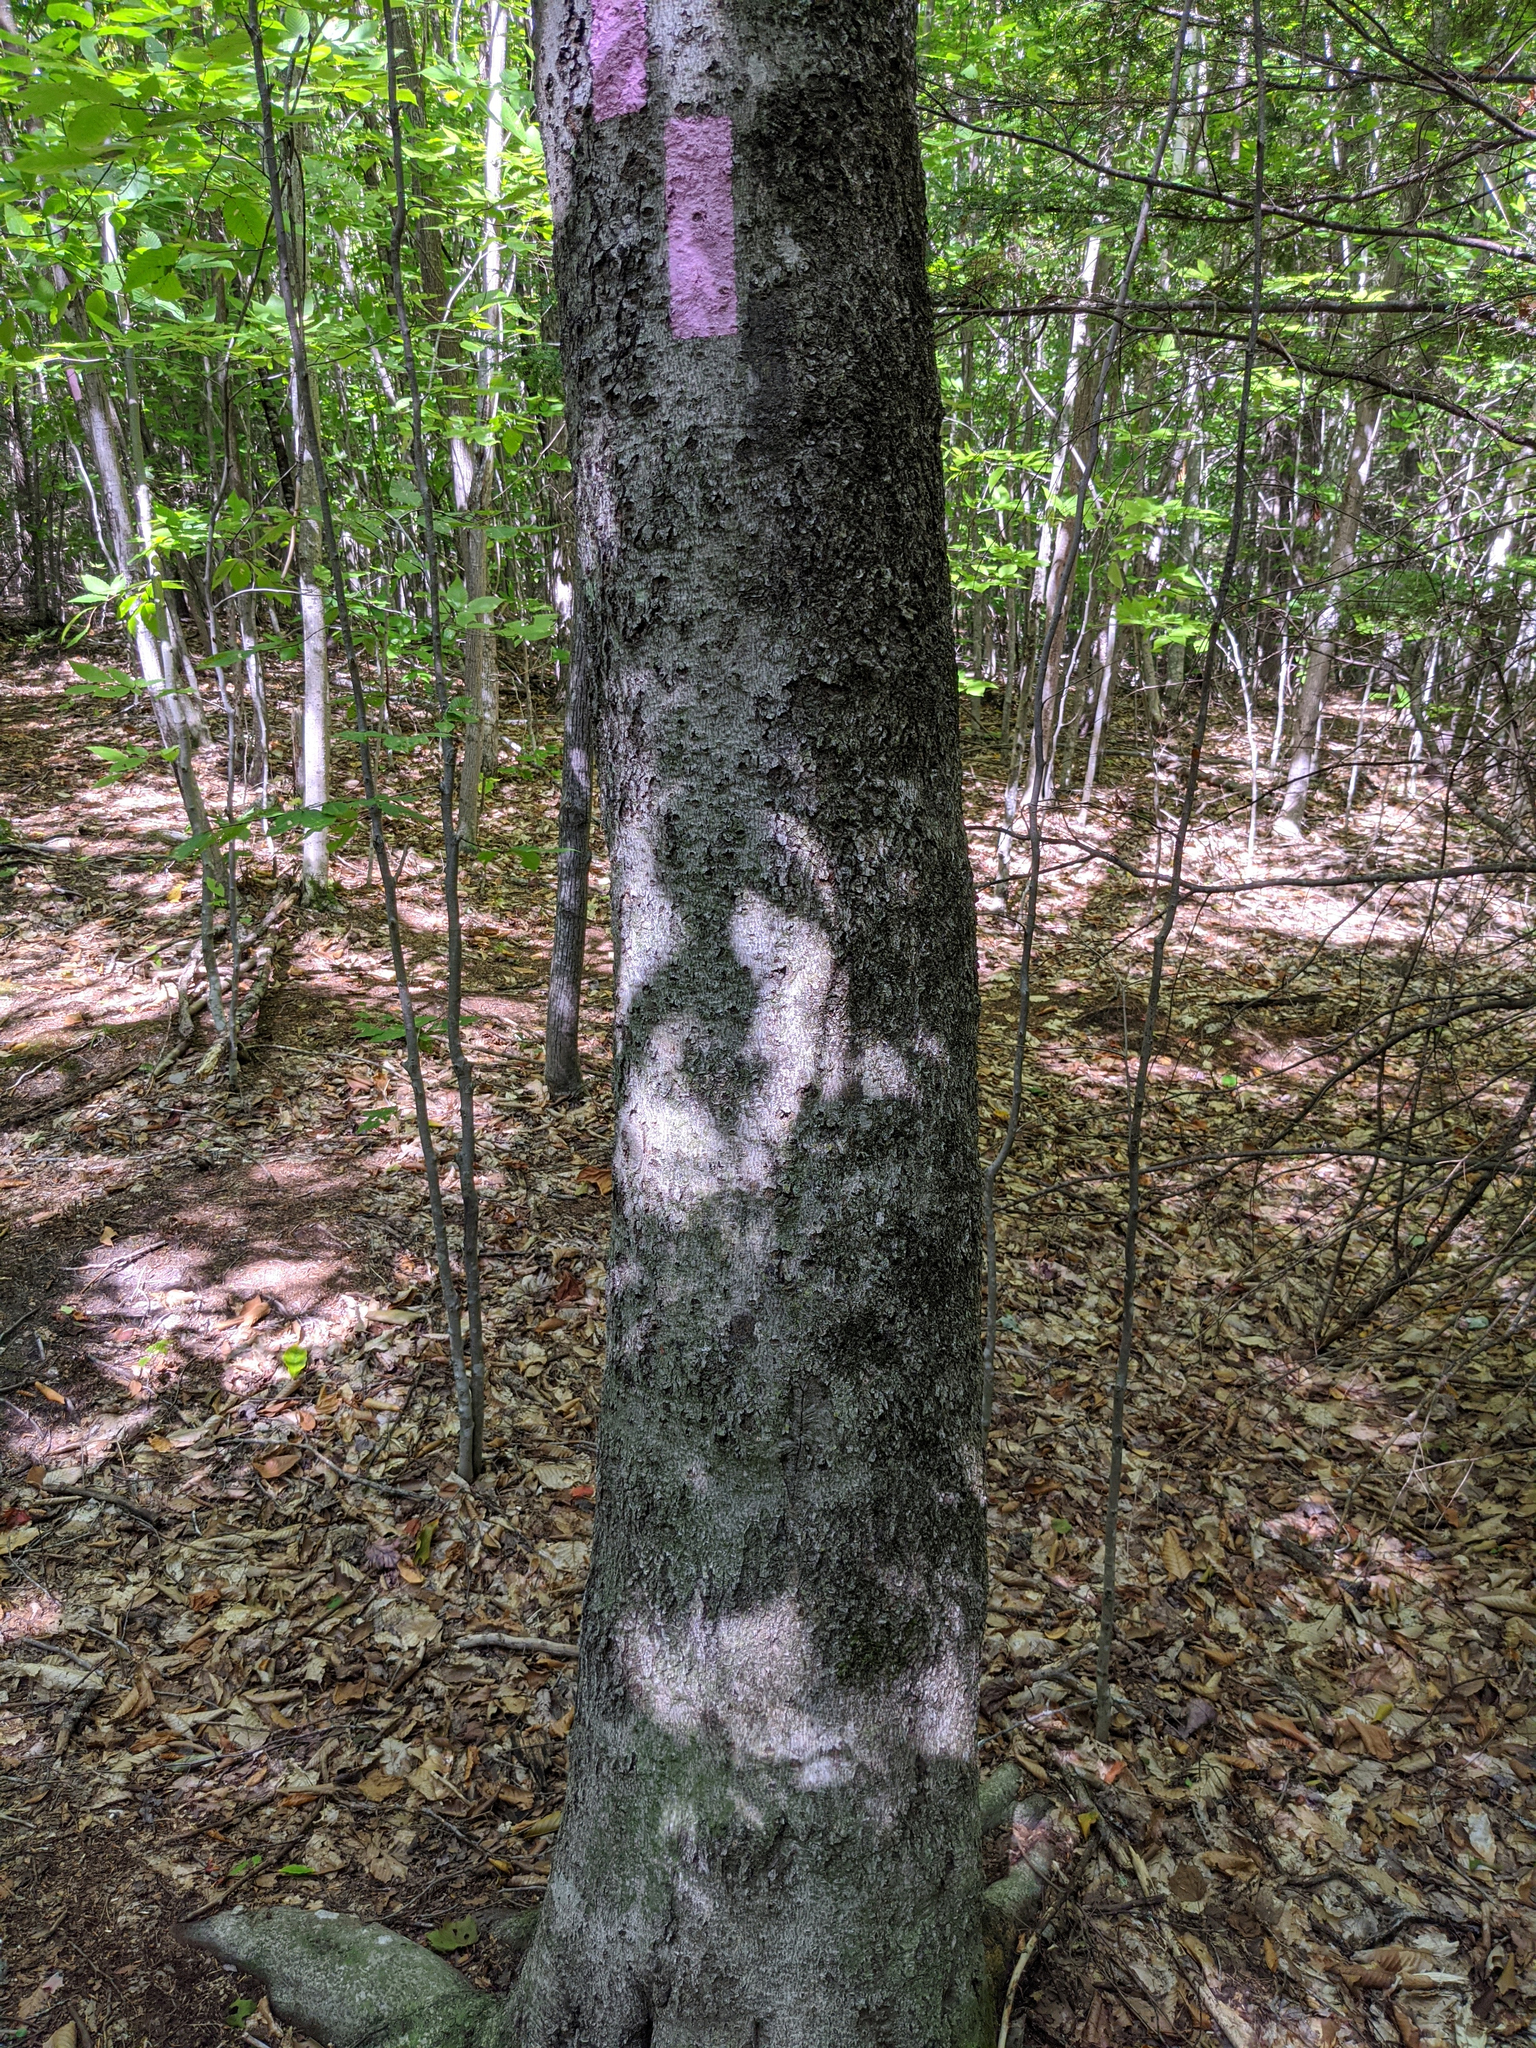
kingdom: Plantae
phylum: Tracheophyta
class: Magnoliopsida
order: Fagales
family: Fagaceae
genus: Fagus
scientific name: Fagus grandifolia
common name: American beech
